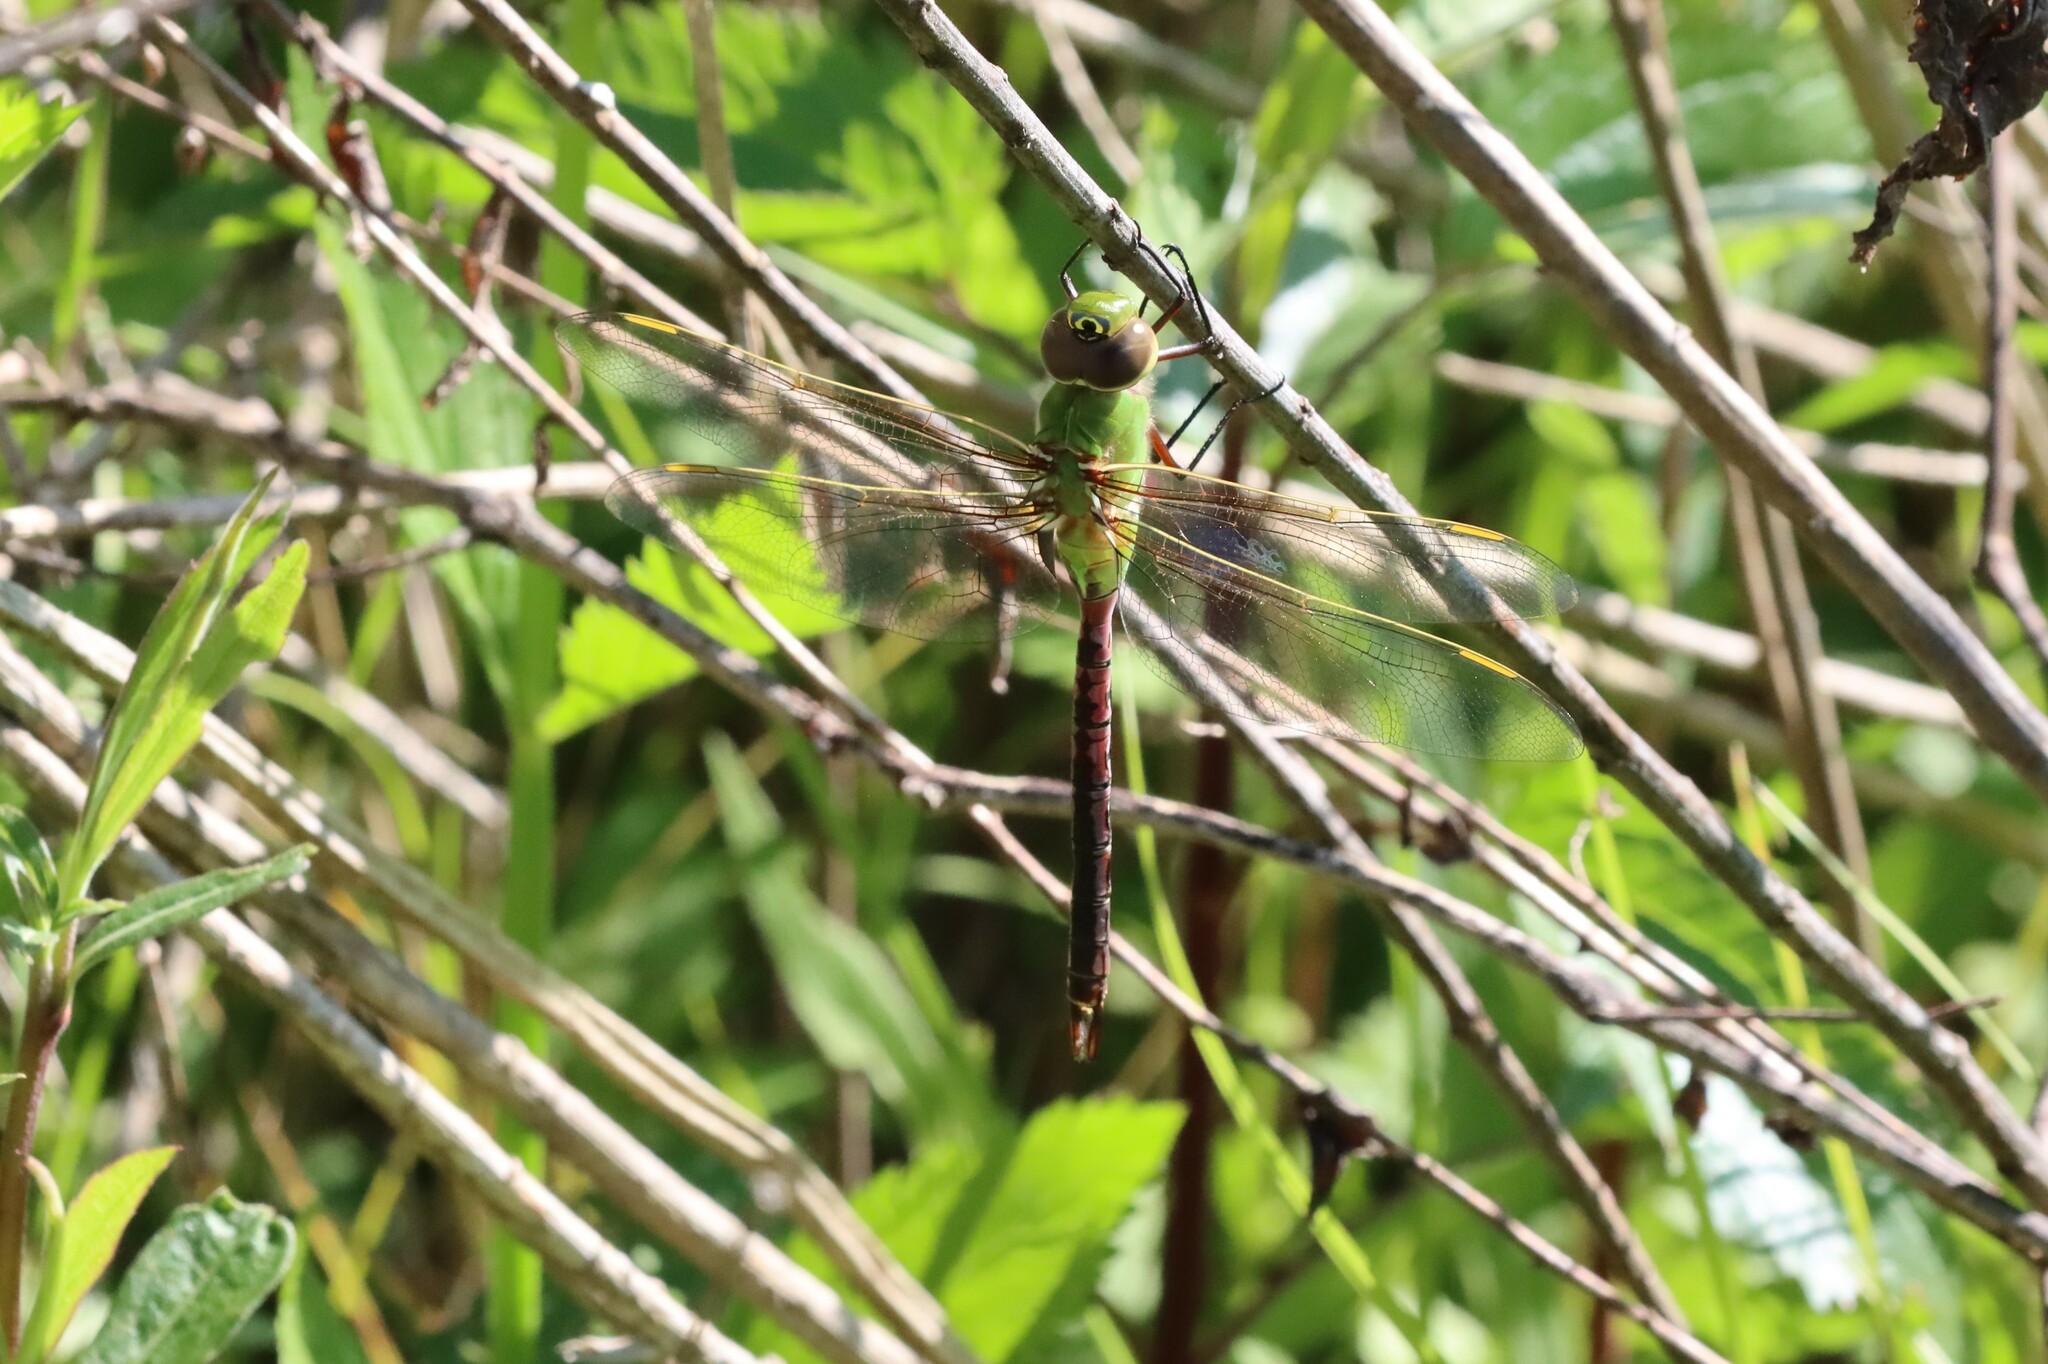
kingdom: Animalia
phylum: Arthropoda
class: Insecta
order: Odonata
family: Aeshnidae
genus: Anax
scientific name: Anax junius
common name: Common green darner
